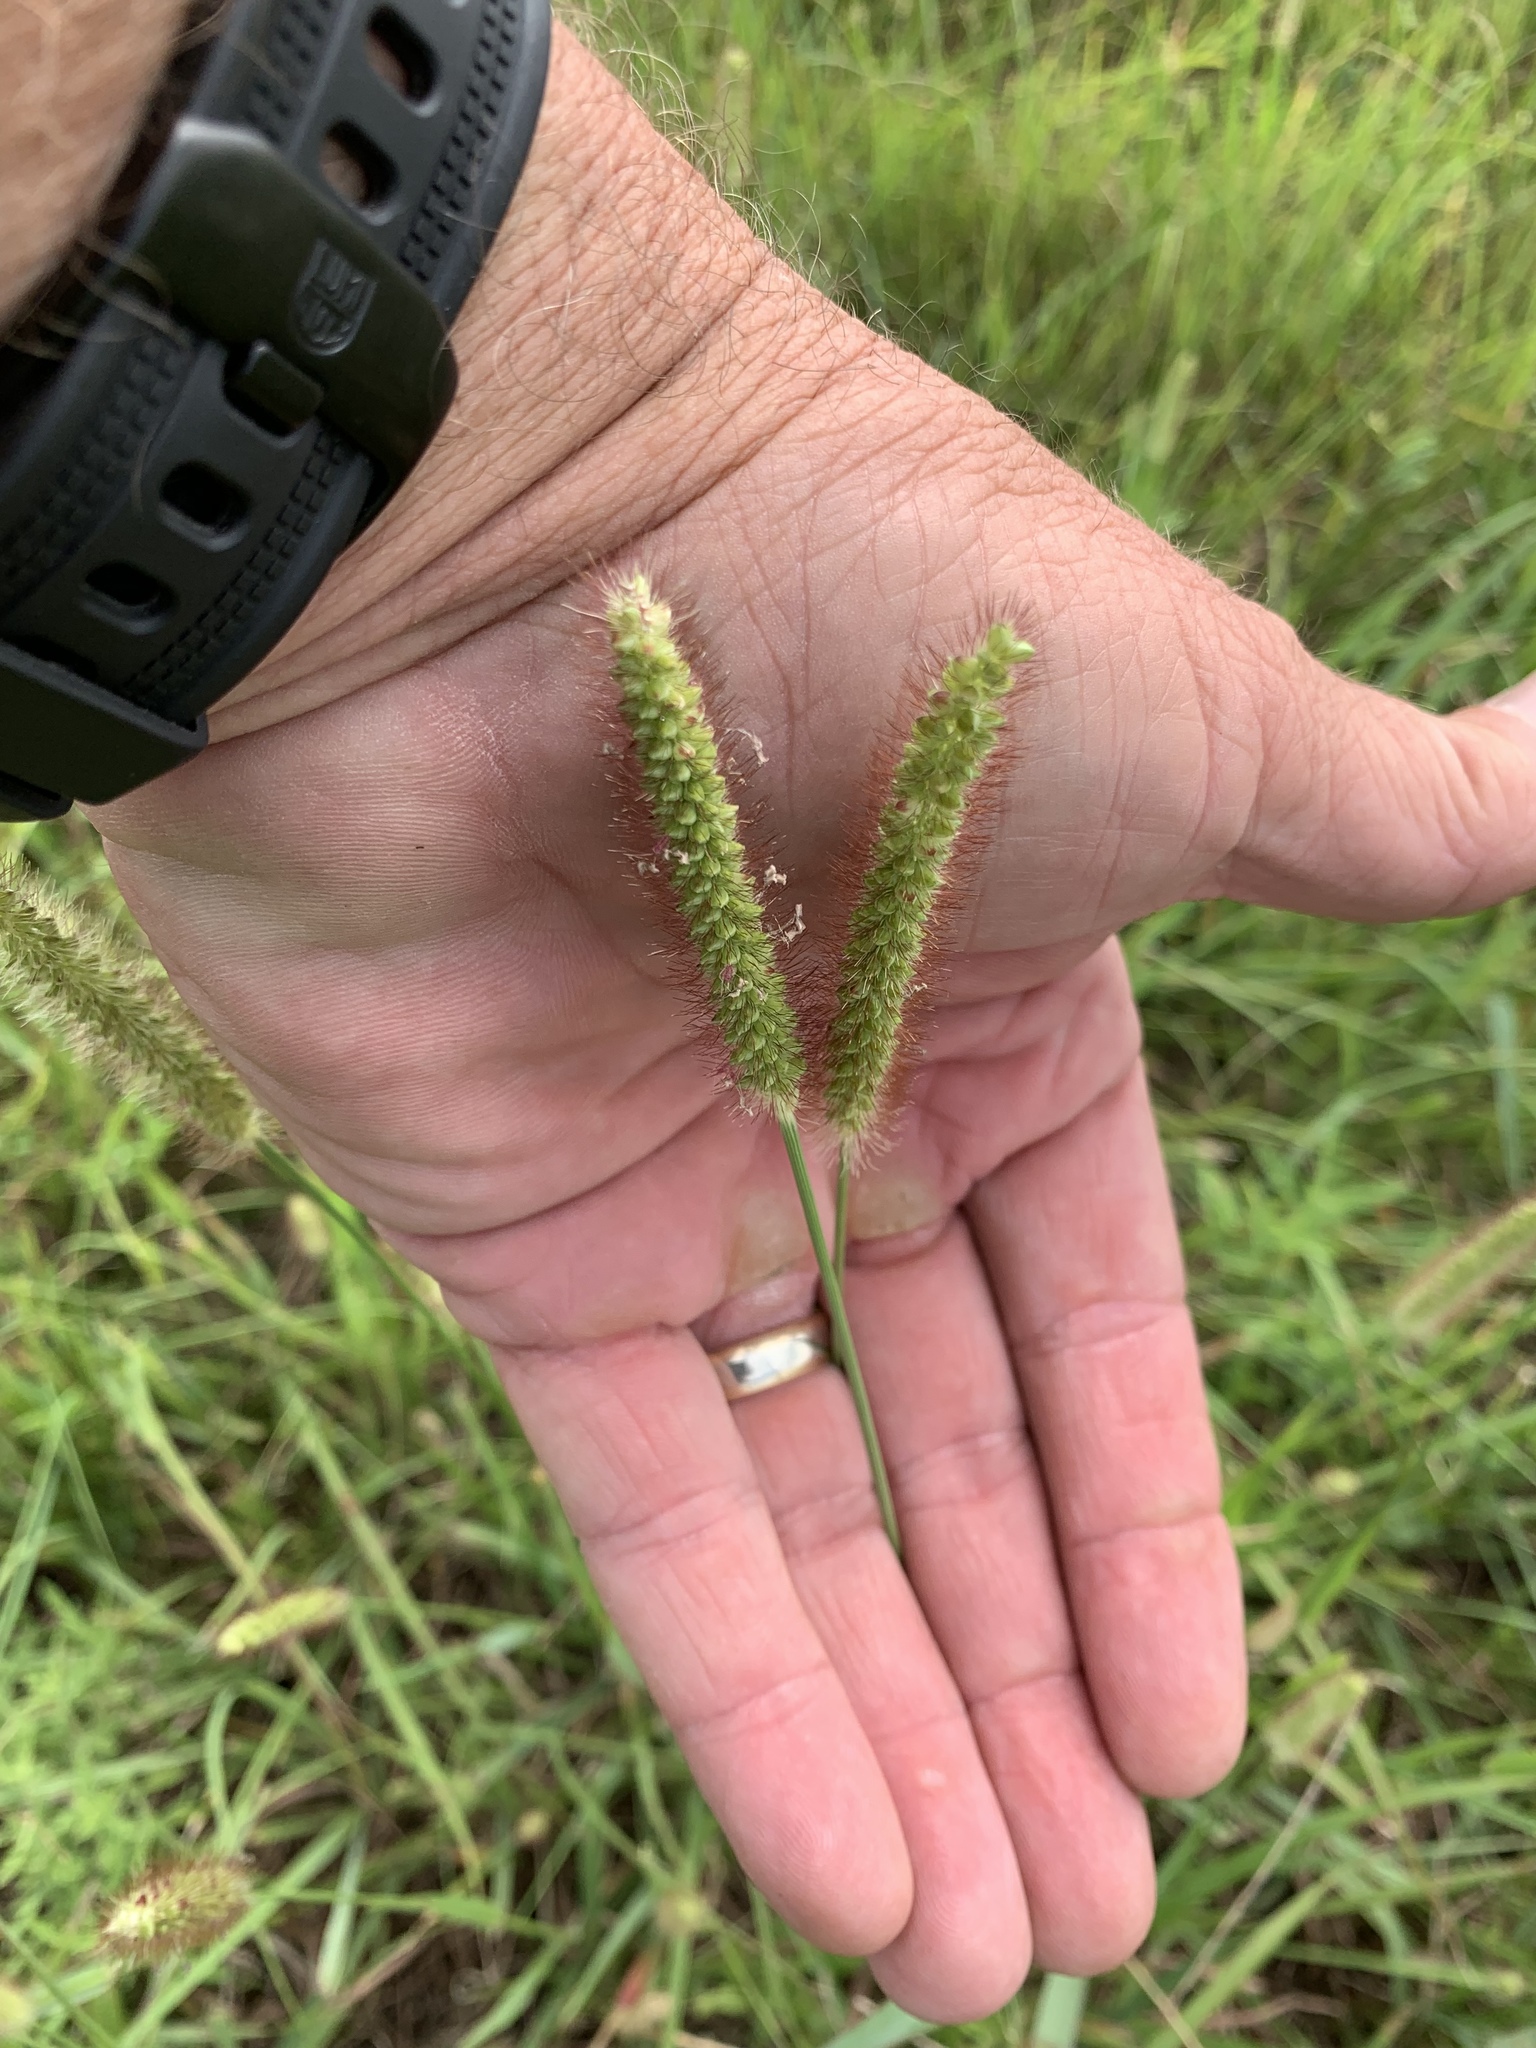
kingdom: Plantae
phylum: Tracheophyta
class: Liliopsida
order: Poales
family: Poaceae
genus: Setaria
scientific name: Setaria pumila
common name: Yellow bristle-grass
